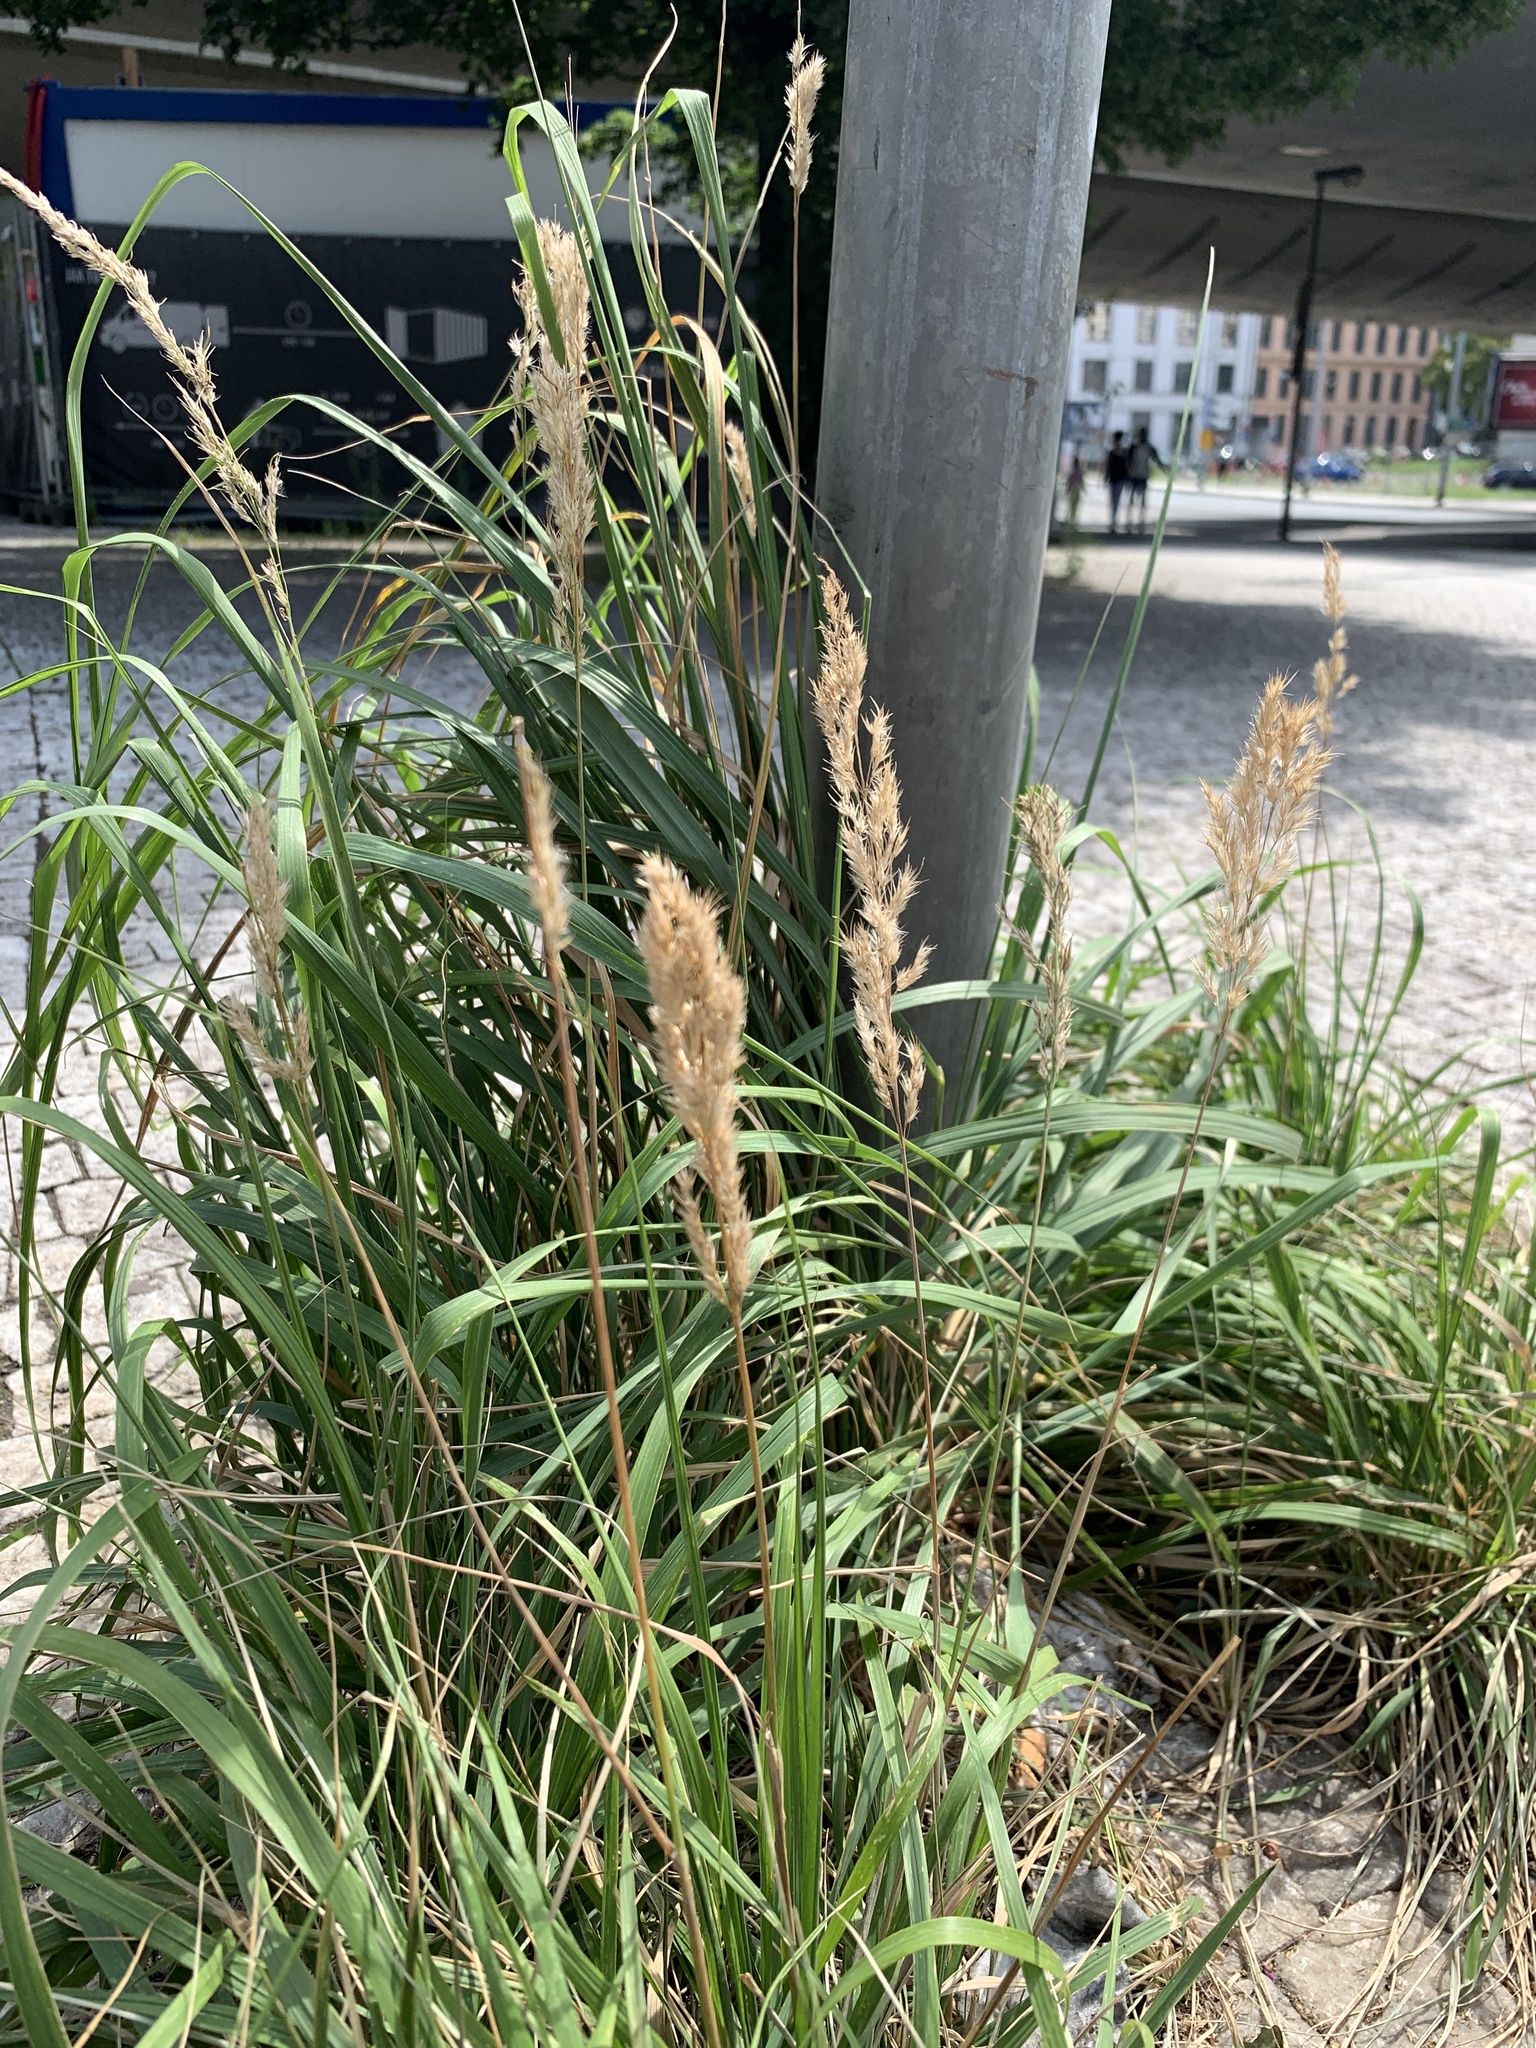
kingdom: Plantae
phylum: Tracheophyta
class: Liliopsida
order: Poales
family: Poaceae
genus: Calamagrostis
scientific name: Calamagrostis epigejos
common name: Wood small-reed
